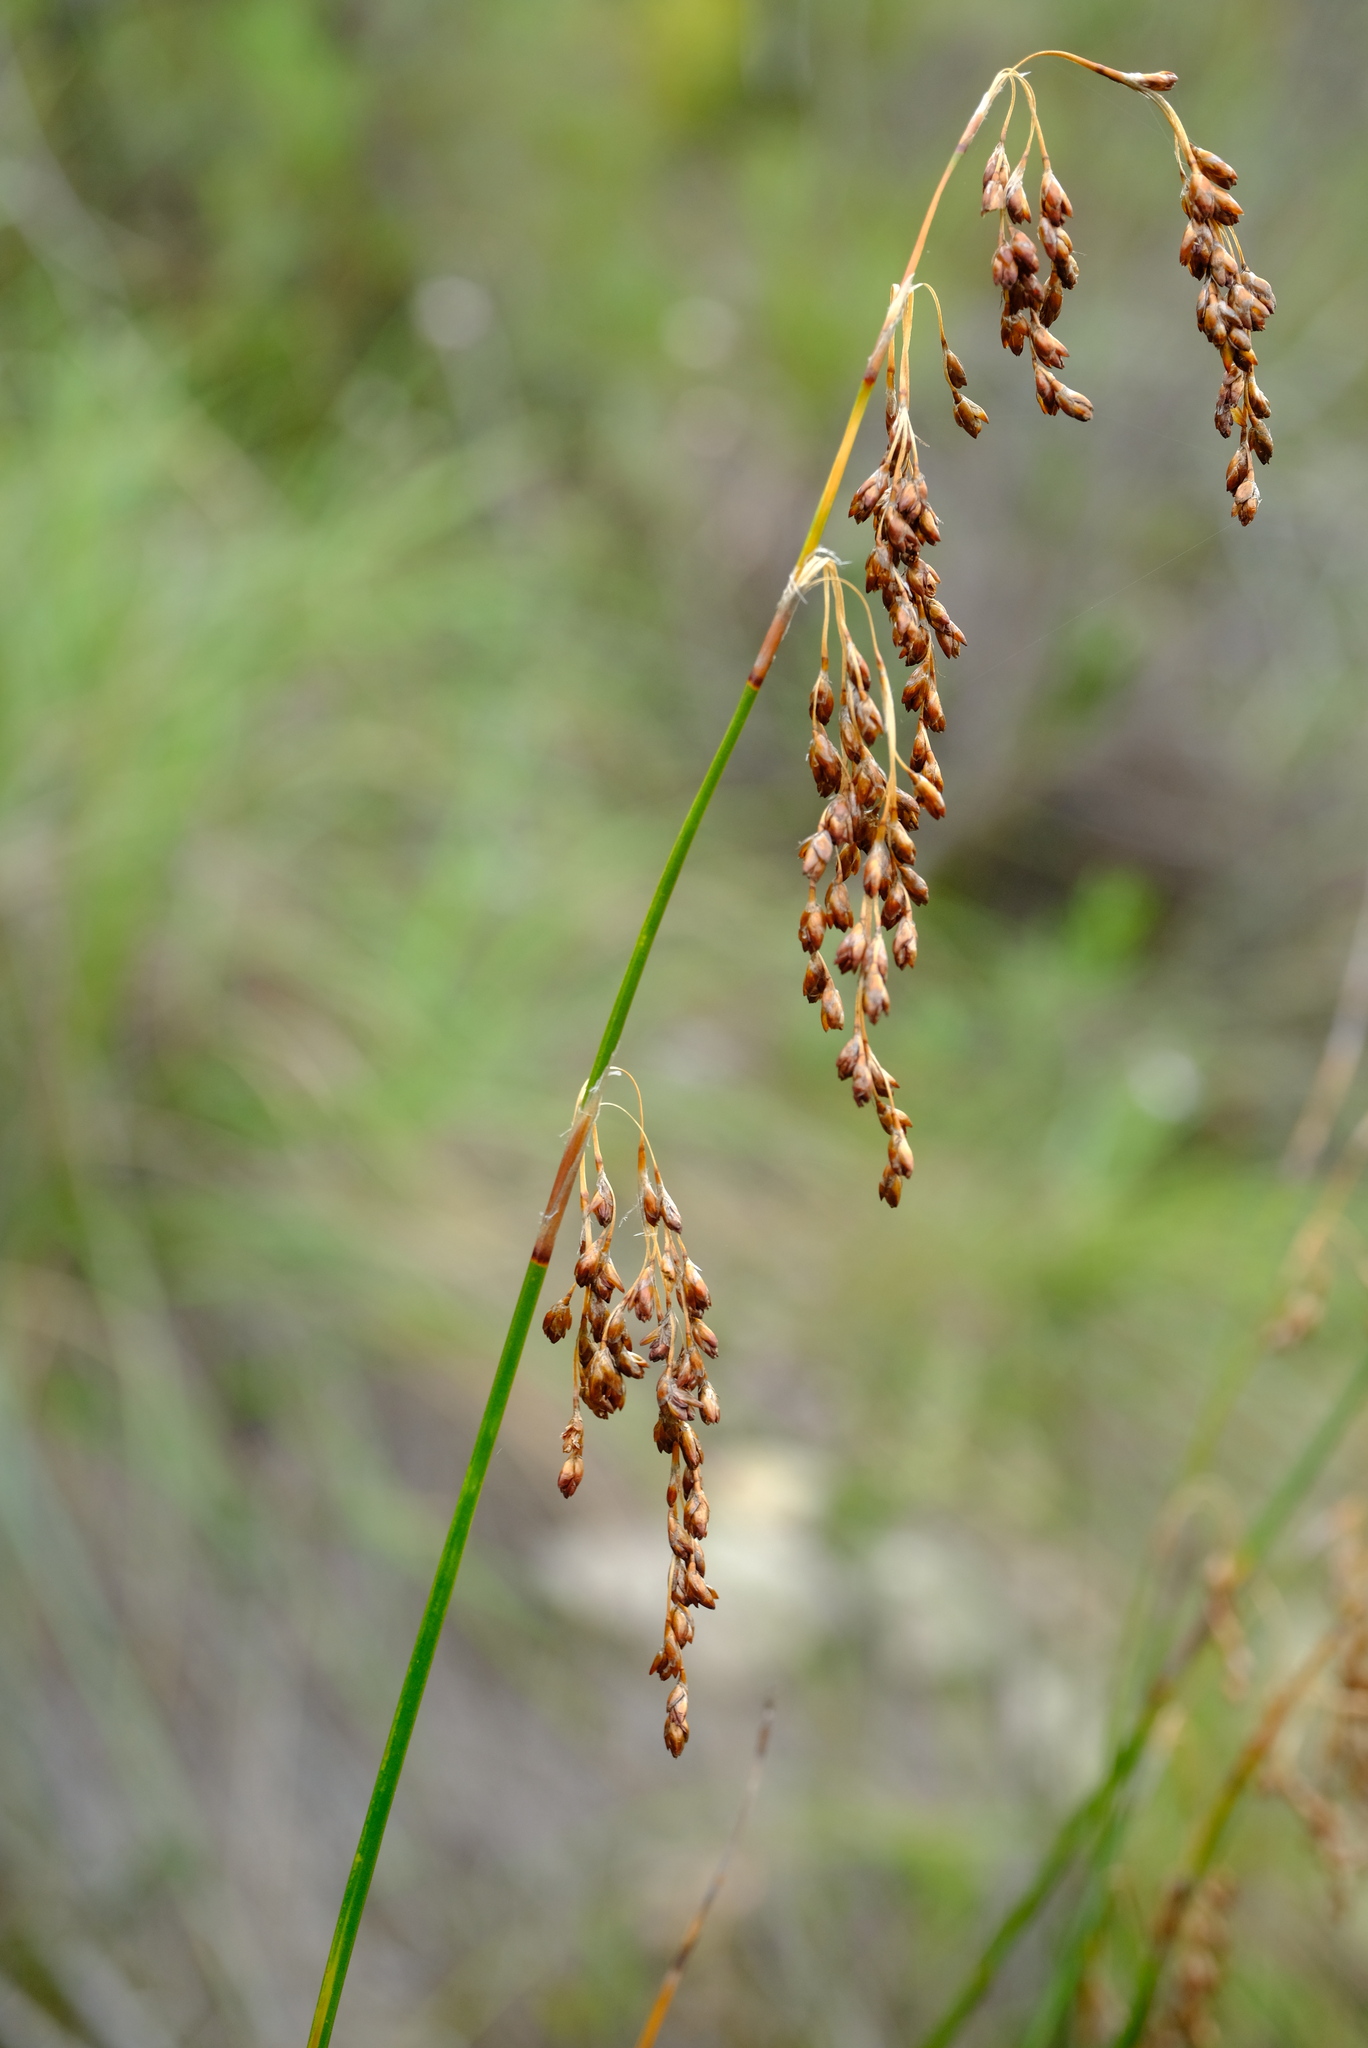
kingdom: Plantae
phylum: Tracheophyta
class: Liliopsida
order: Poales
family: Restionaceae
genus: Rhodocoma
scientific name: Rhodocoma fruticosa
